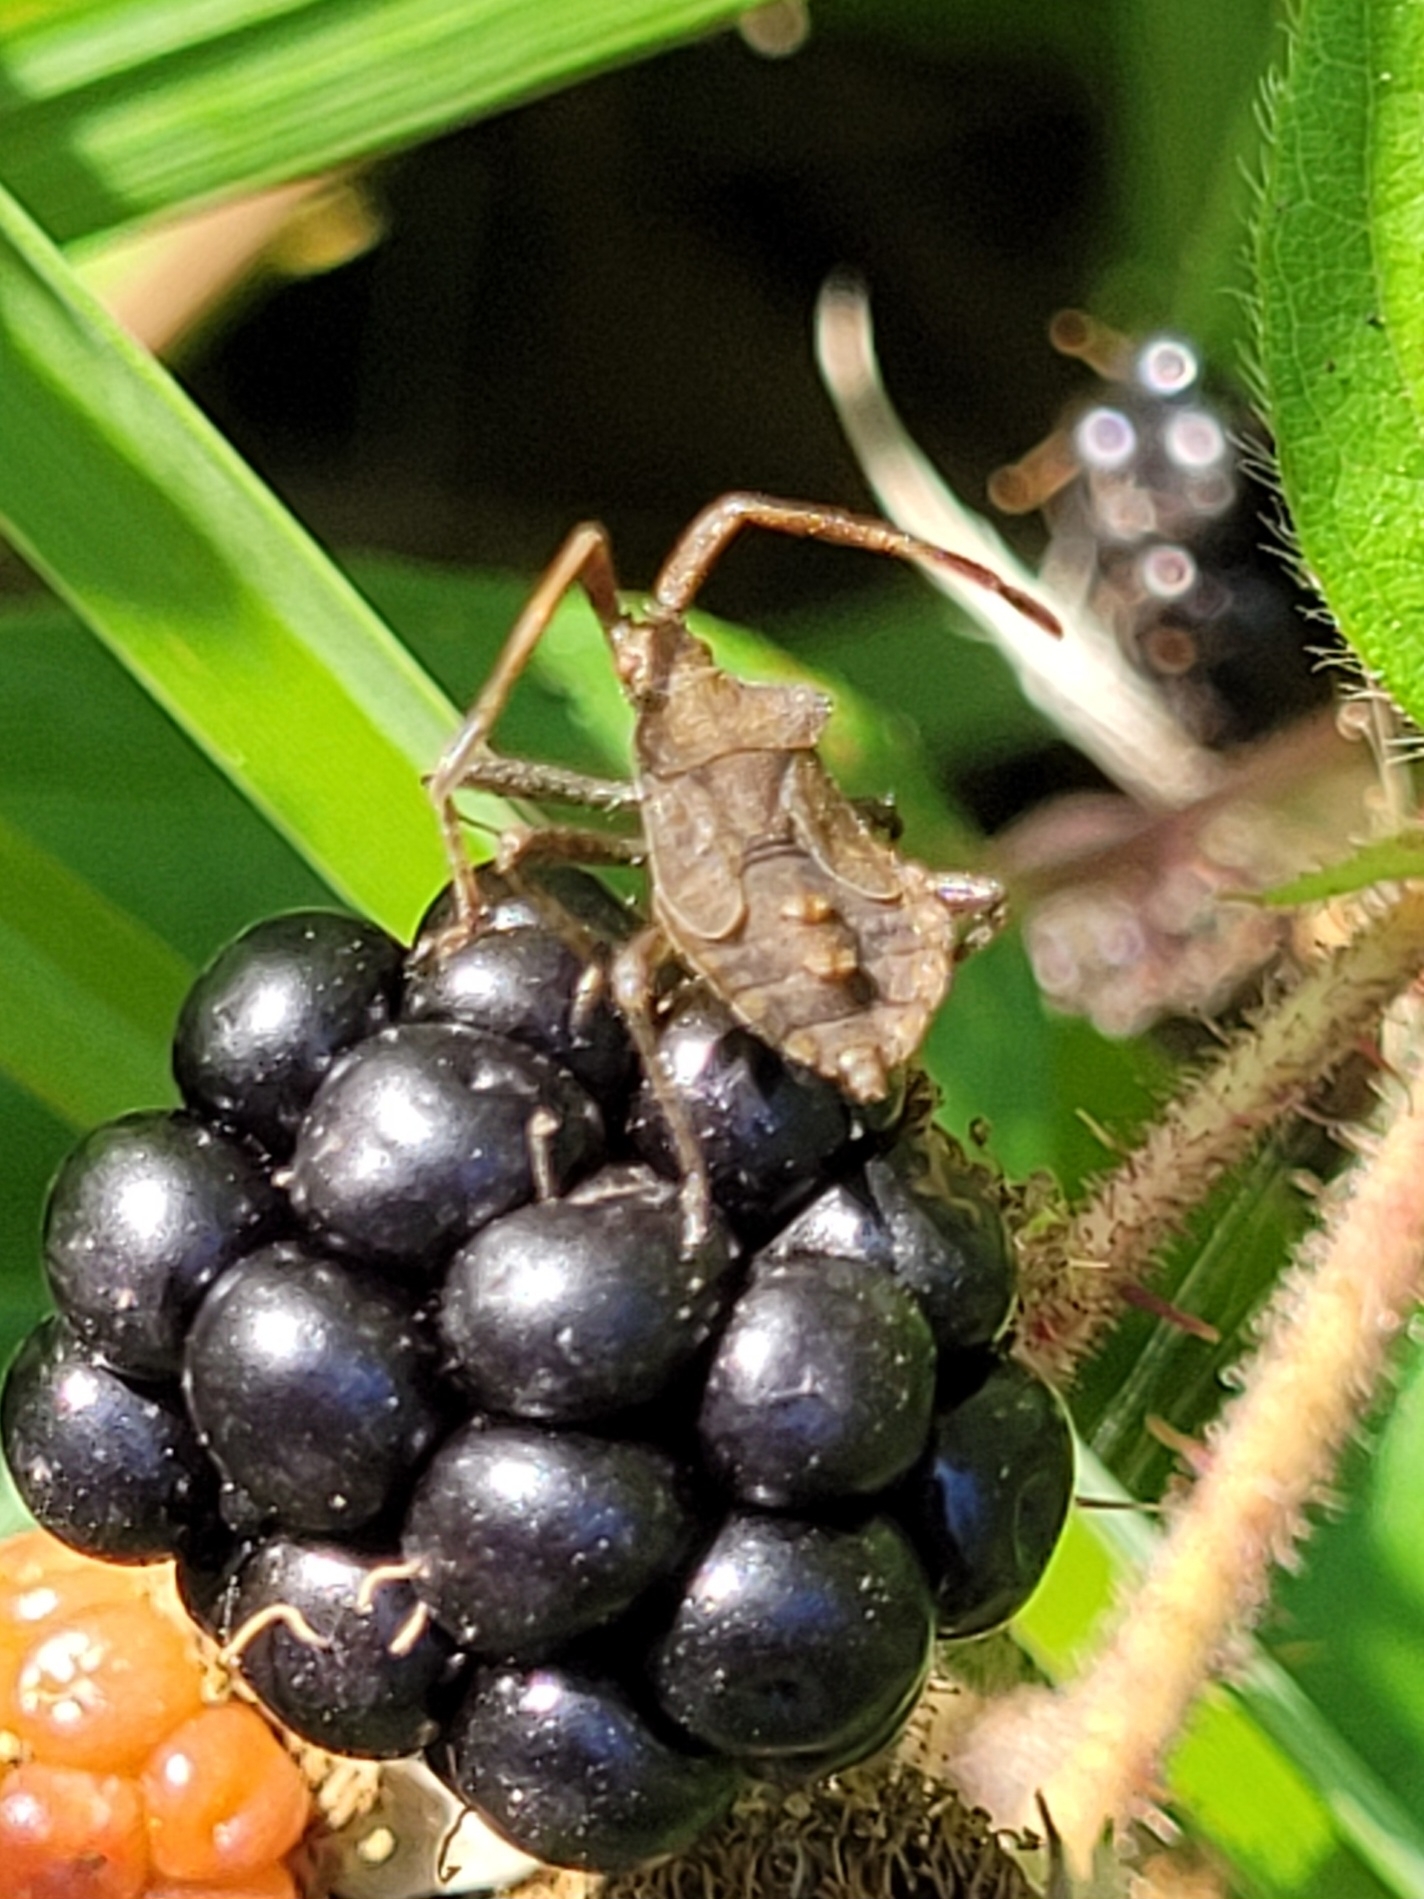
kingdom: Animalia
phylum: Arthropoda
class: Insecta
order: Hemiptera
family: Coreidae
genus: Coreus
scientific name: Coreus marginatus
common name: Dock bug
